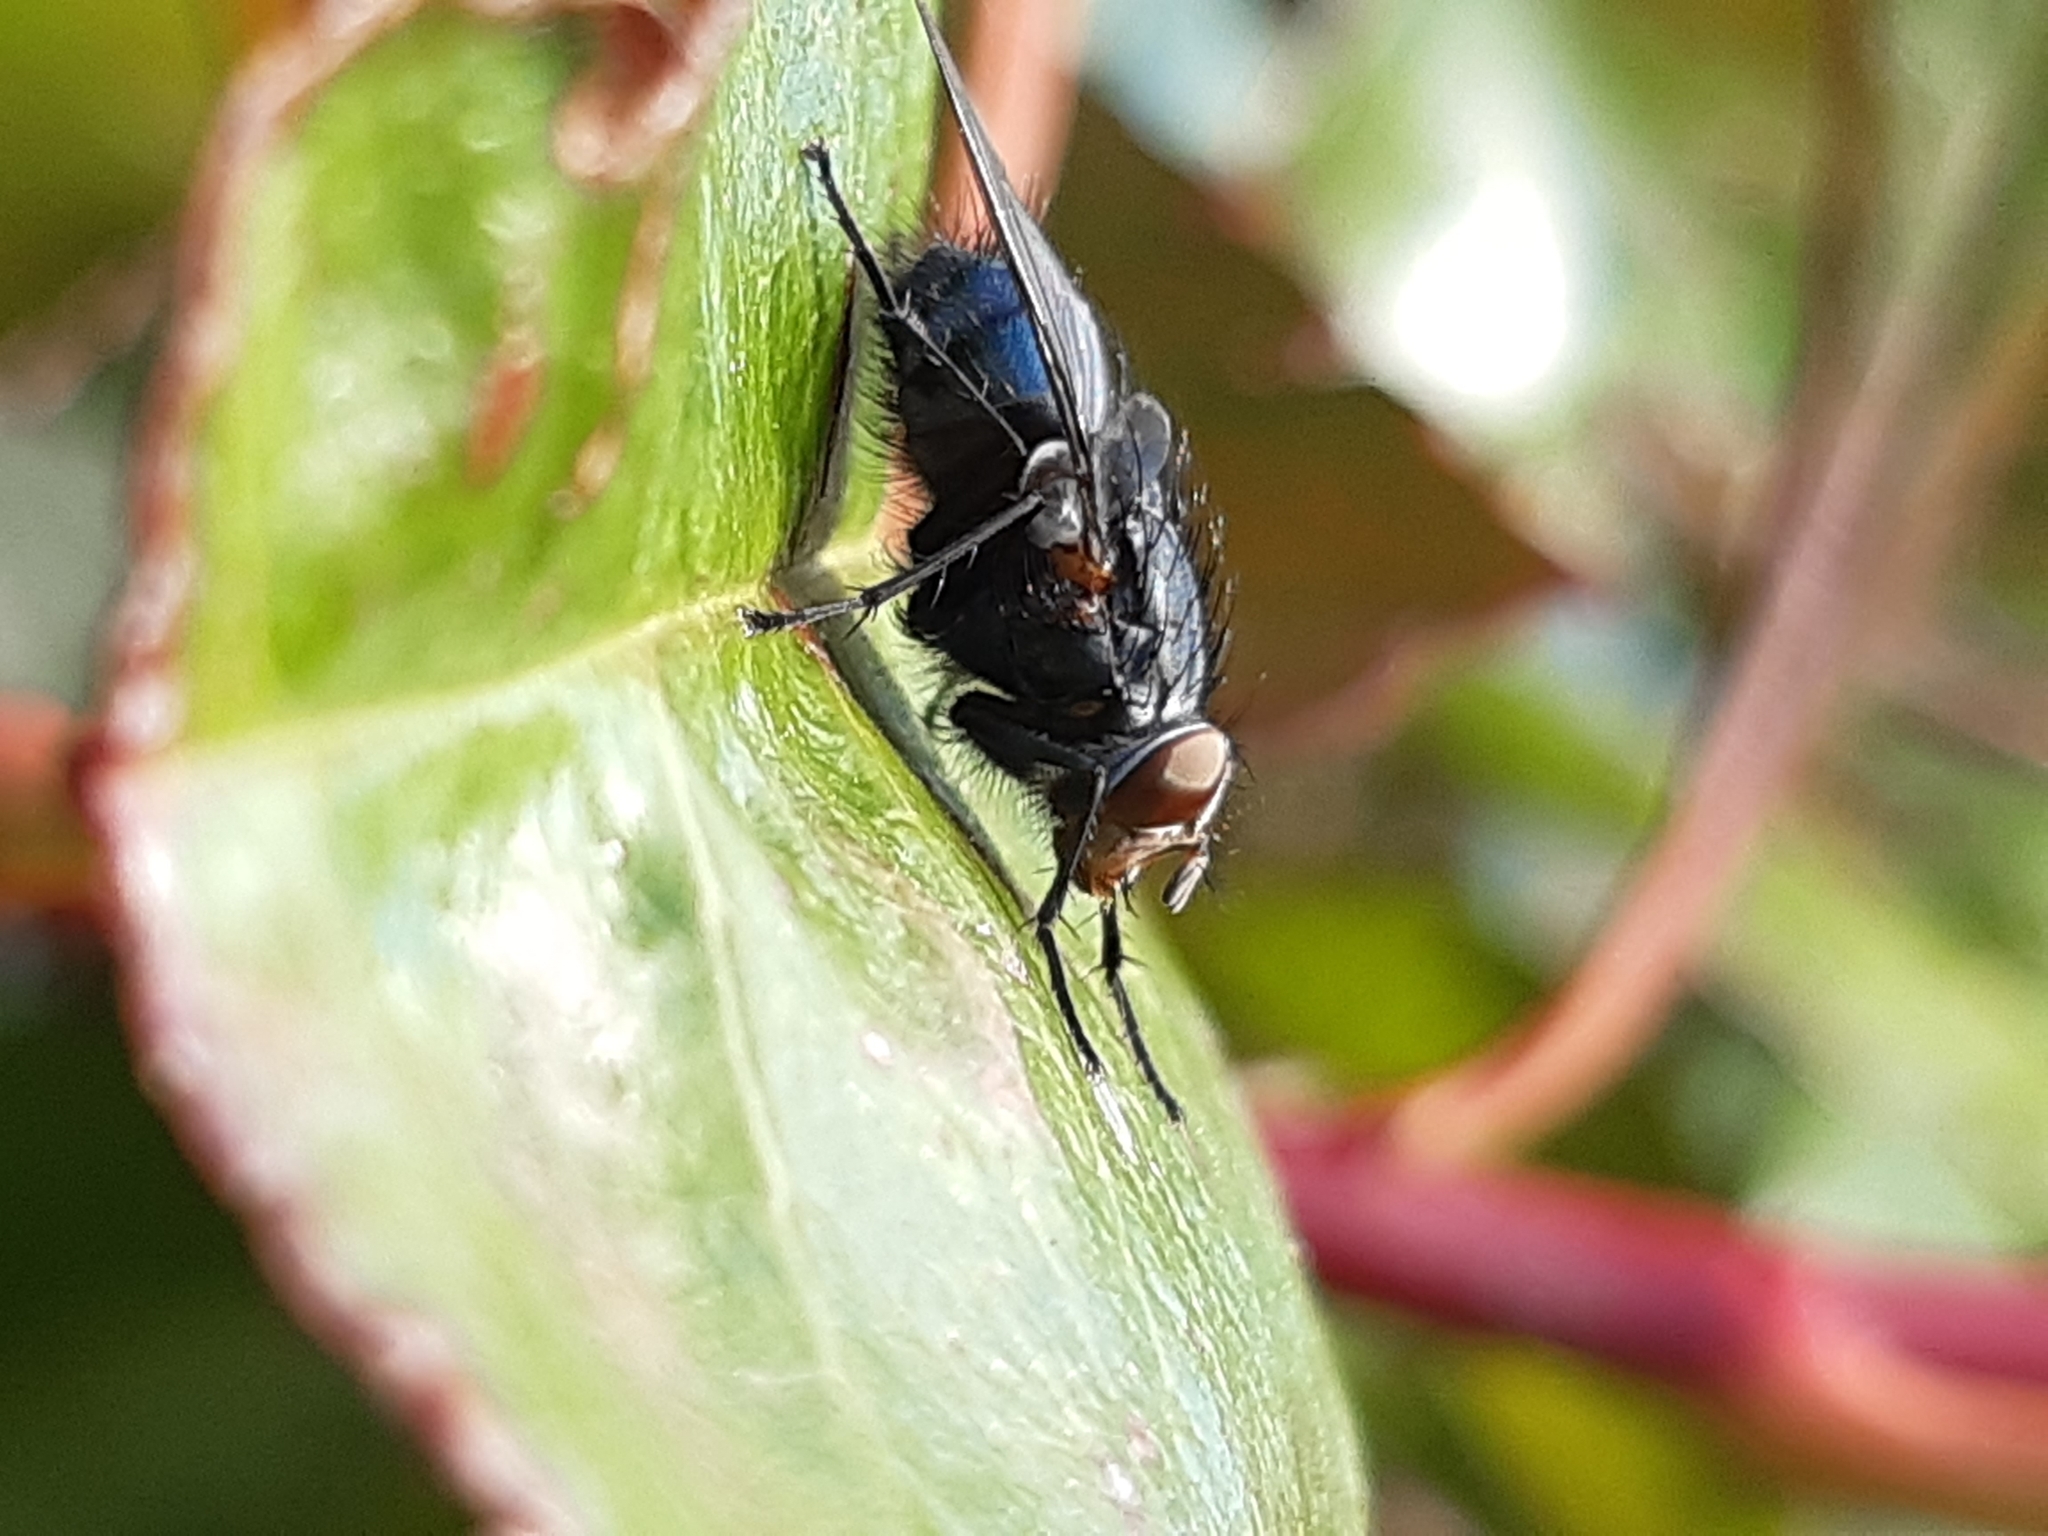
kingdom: Animalia
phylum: Arthropoda
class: Insecta
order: Diptera
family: Calliphoridae
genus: Calliphora
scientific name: Calliphora vicina
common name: Common blow flie
